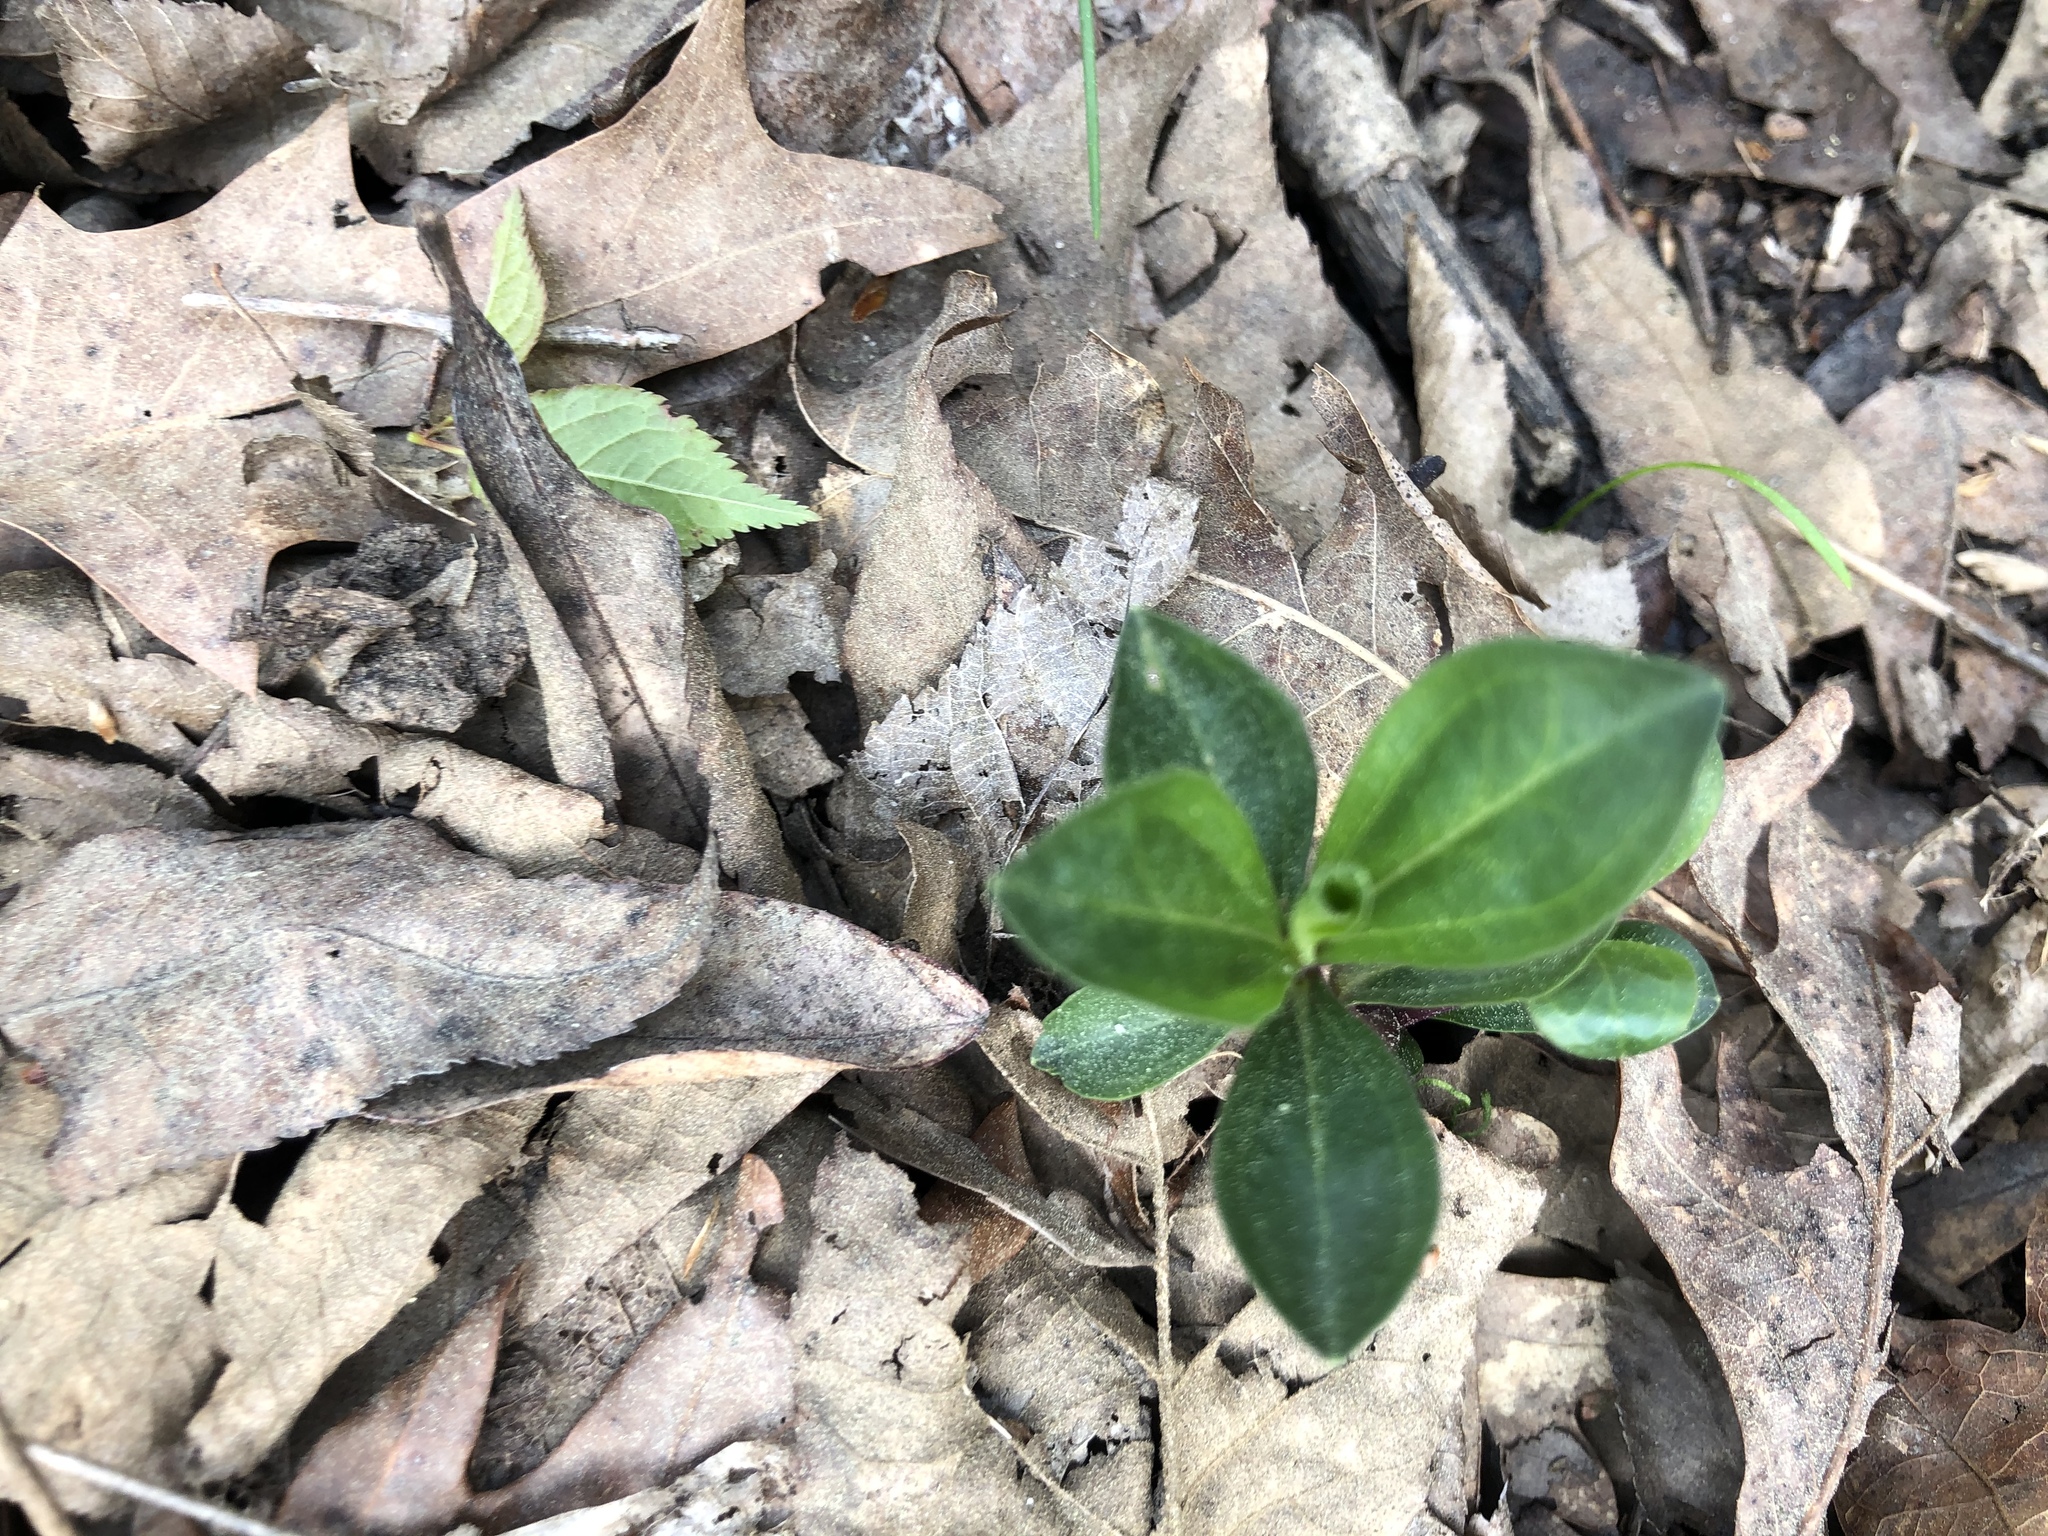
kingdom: Plantae
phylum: Tracheophyta
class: Magnoliopsida
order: Gentianales
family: Gentianaceae
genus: Gentiana
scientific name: Gentiana villosa
